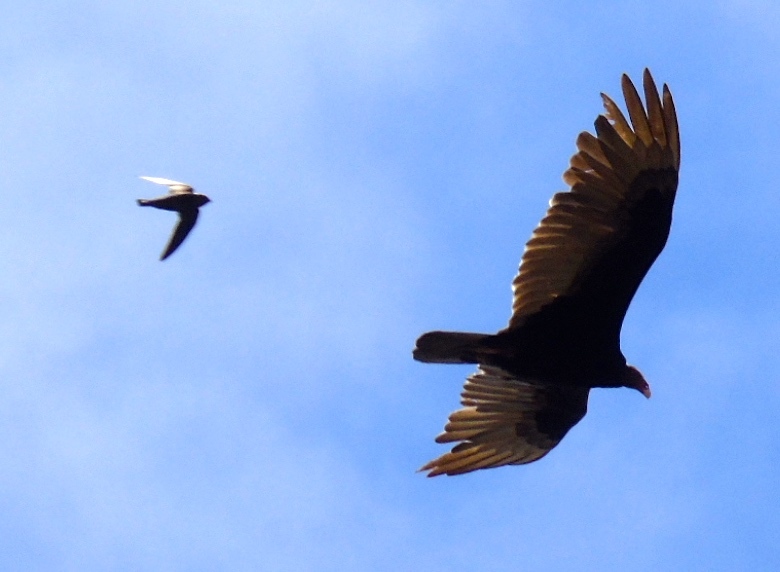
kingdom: Animalia
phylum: Chordata
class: Aves
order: Accipitriformes
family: Cathartidae
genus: Cathartes
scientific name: Cathartes aura
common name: Turkey vulture
